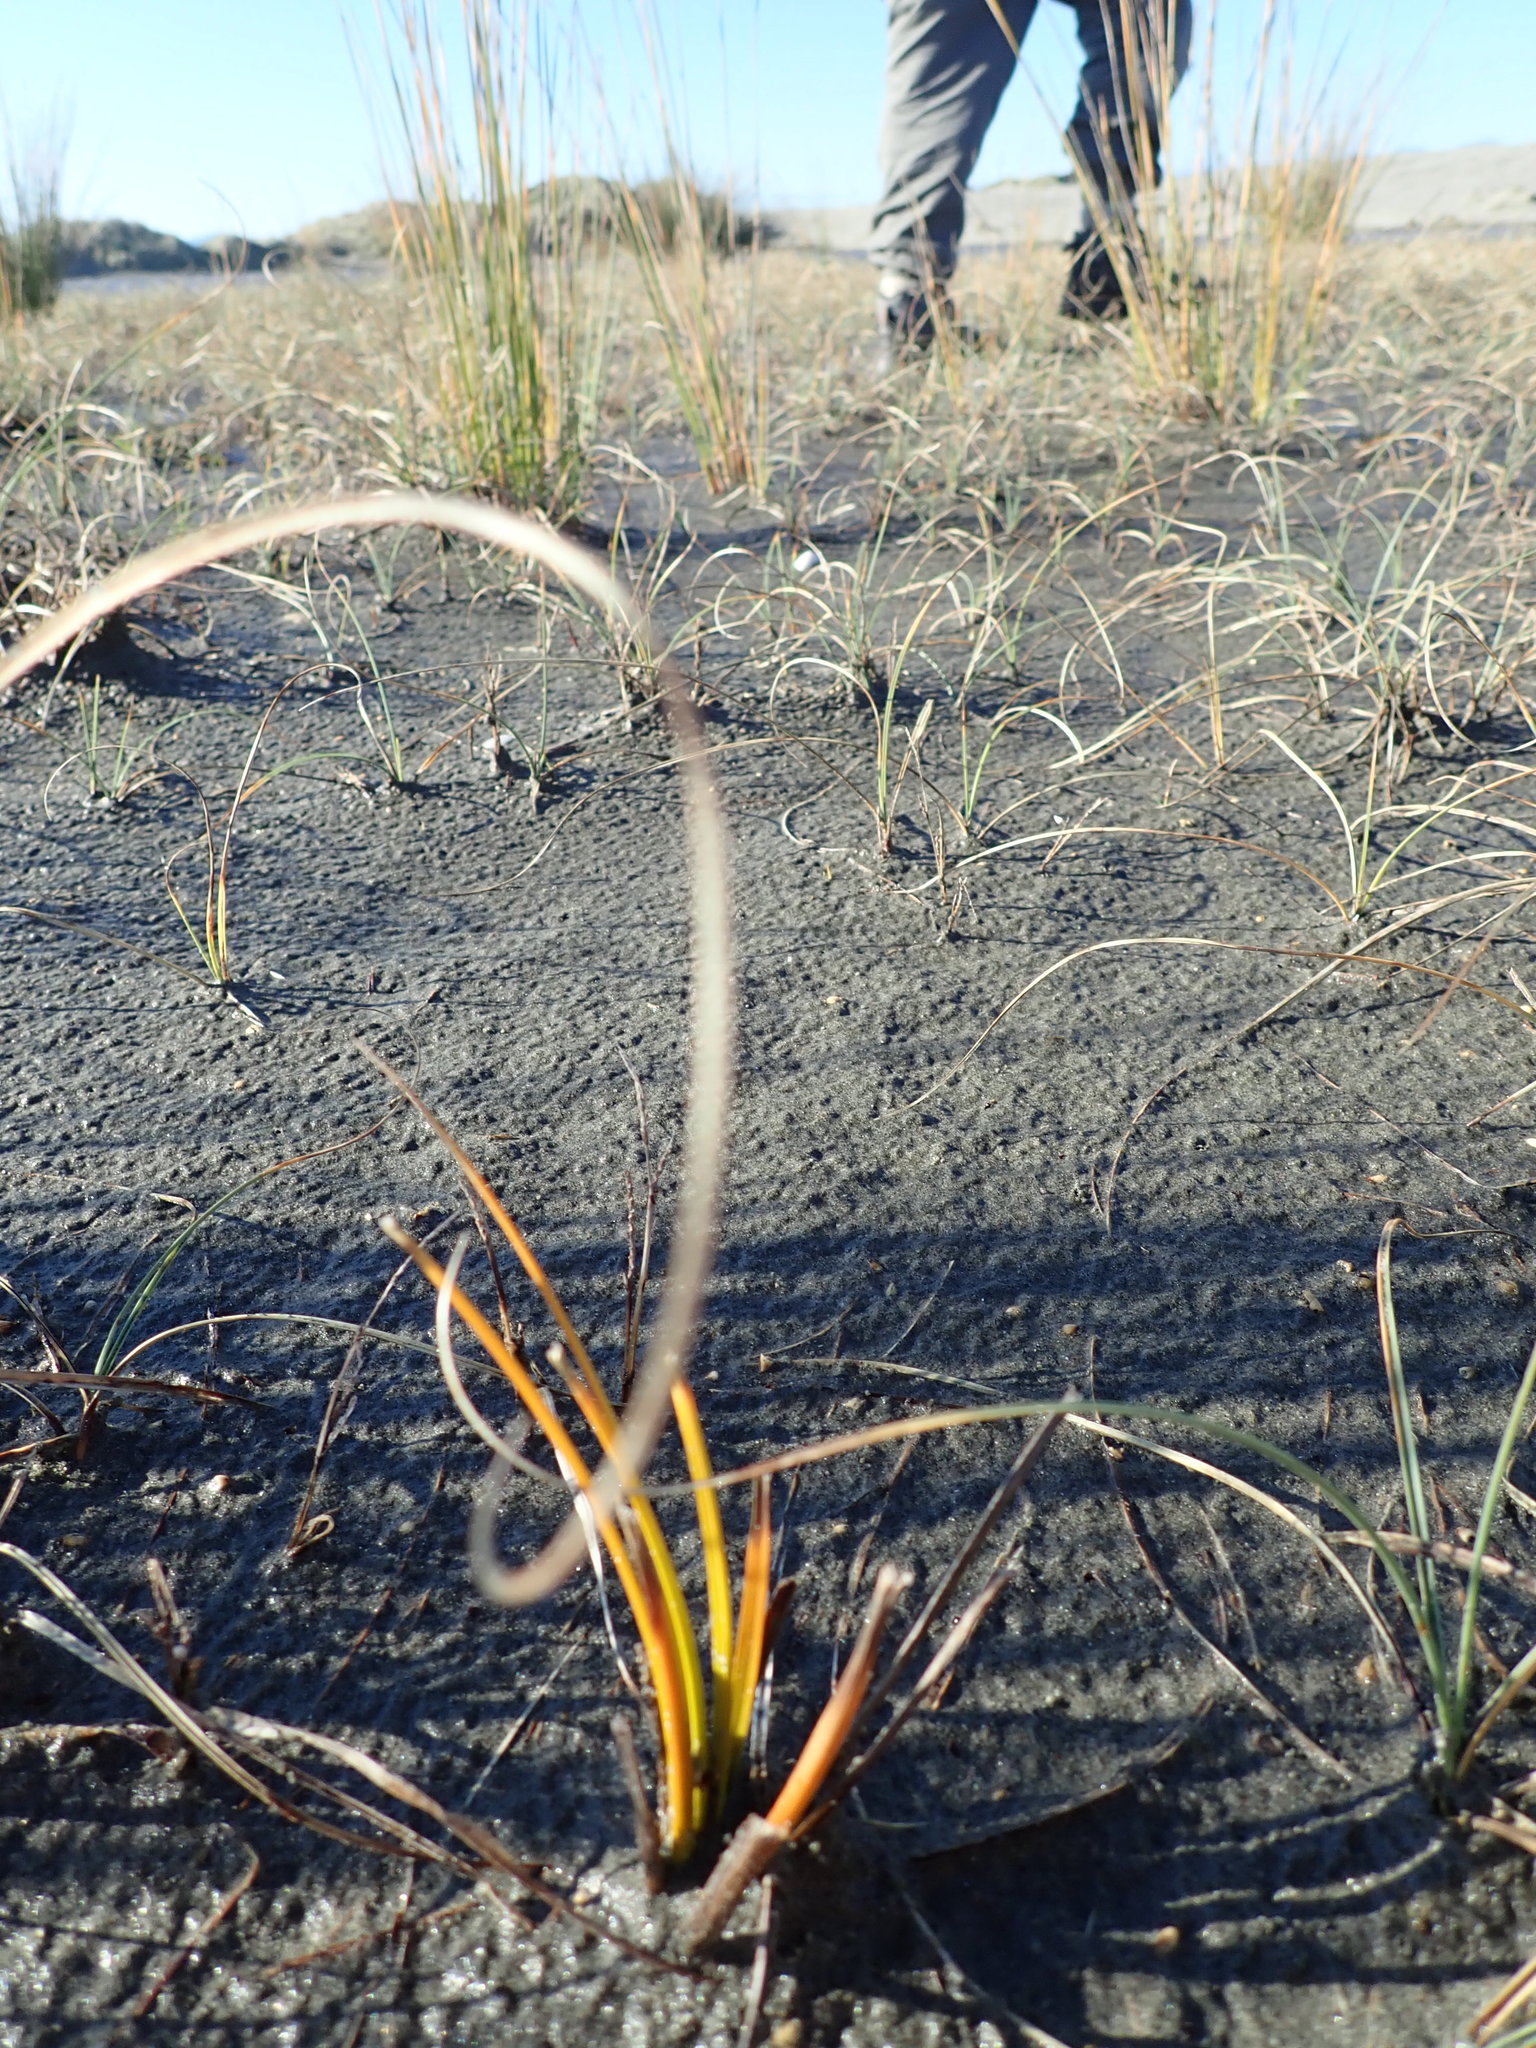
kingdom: Plantae
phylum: Tracheophyta
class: Liliopsida
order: Poales
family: Cyperaceae
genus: Ficinia
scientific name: Ficinia spiralis
